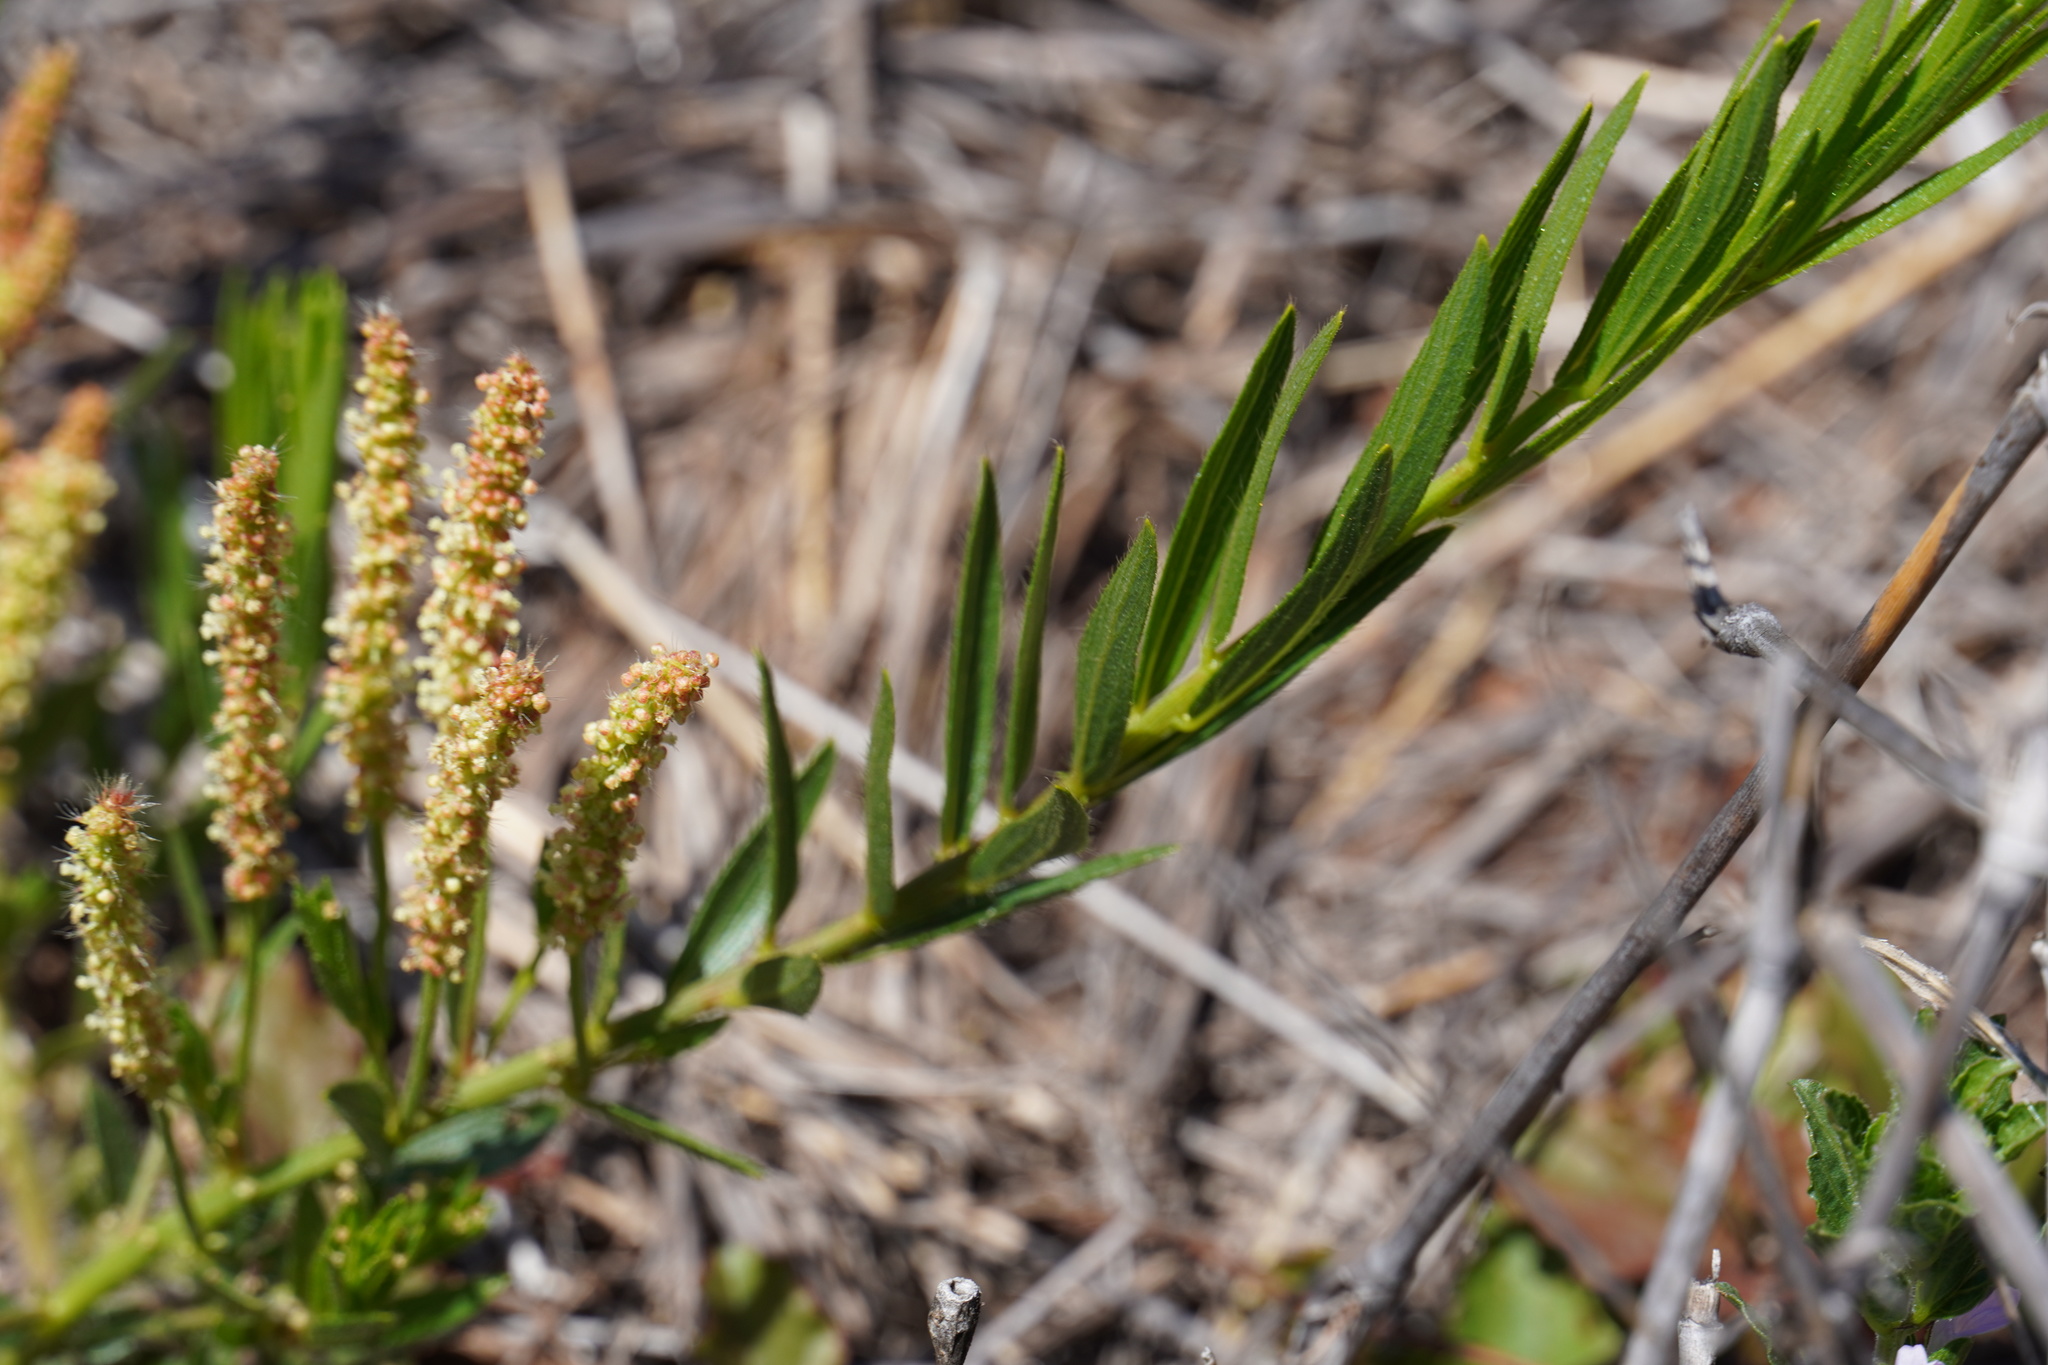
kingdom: Plantae
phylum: Tracheophyta
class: Magnoliopsida
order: Malpighiales
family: Euphorbiaceae
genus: Acalypha
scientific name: Acalypha caperonioides
